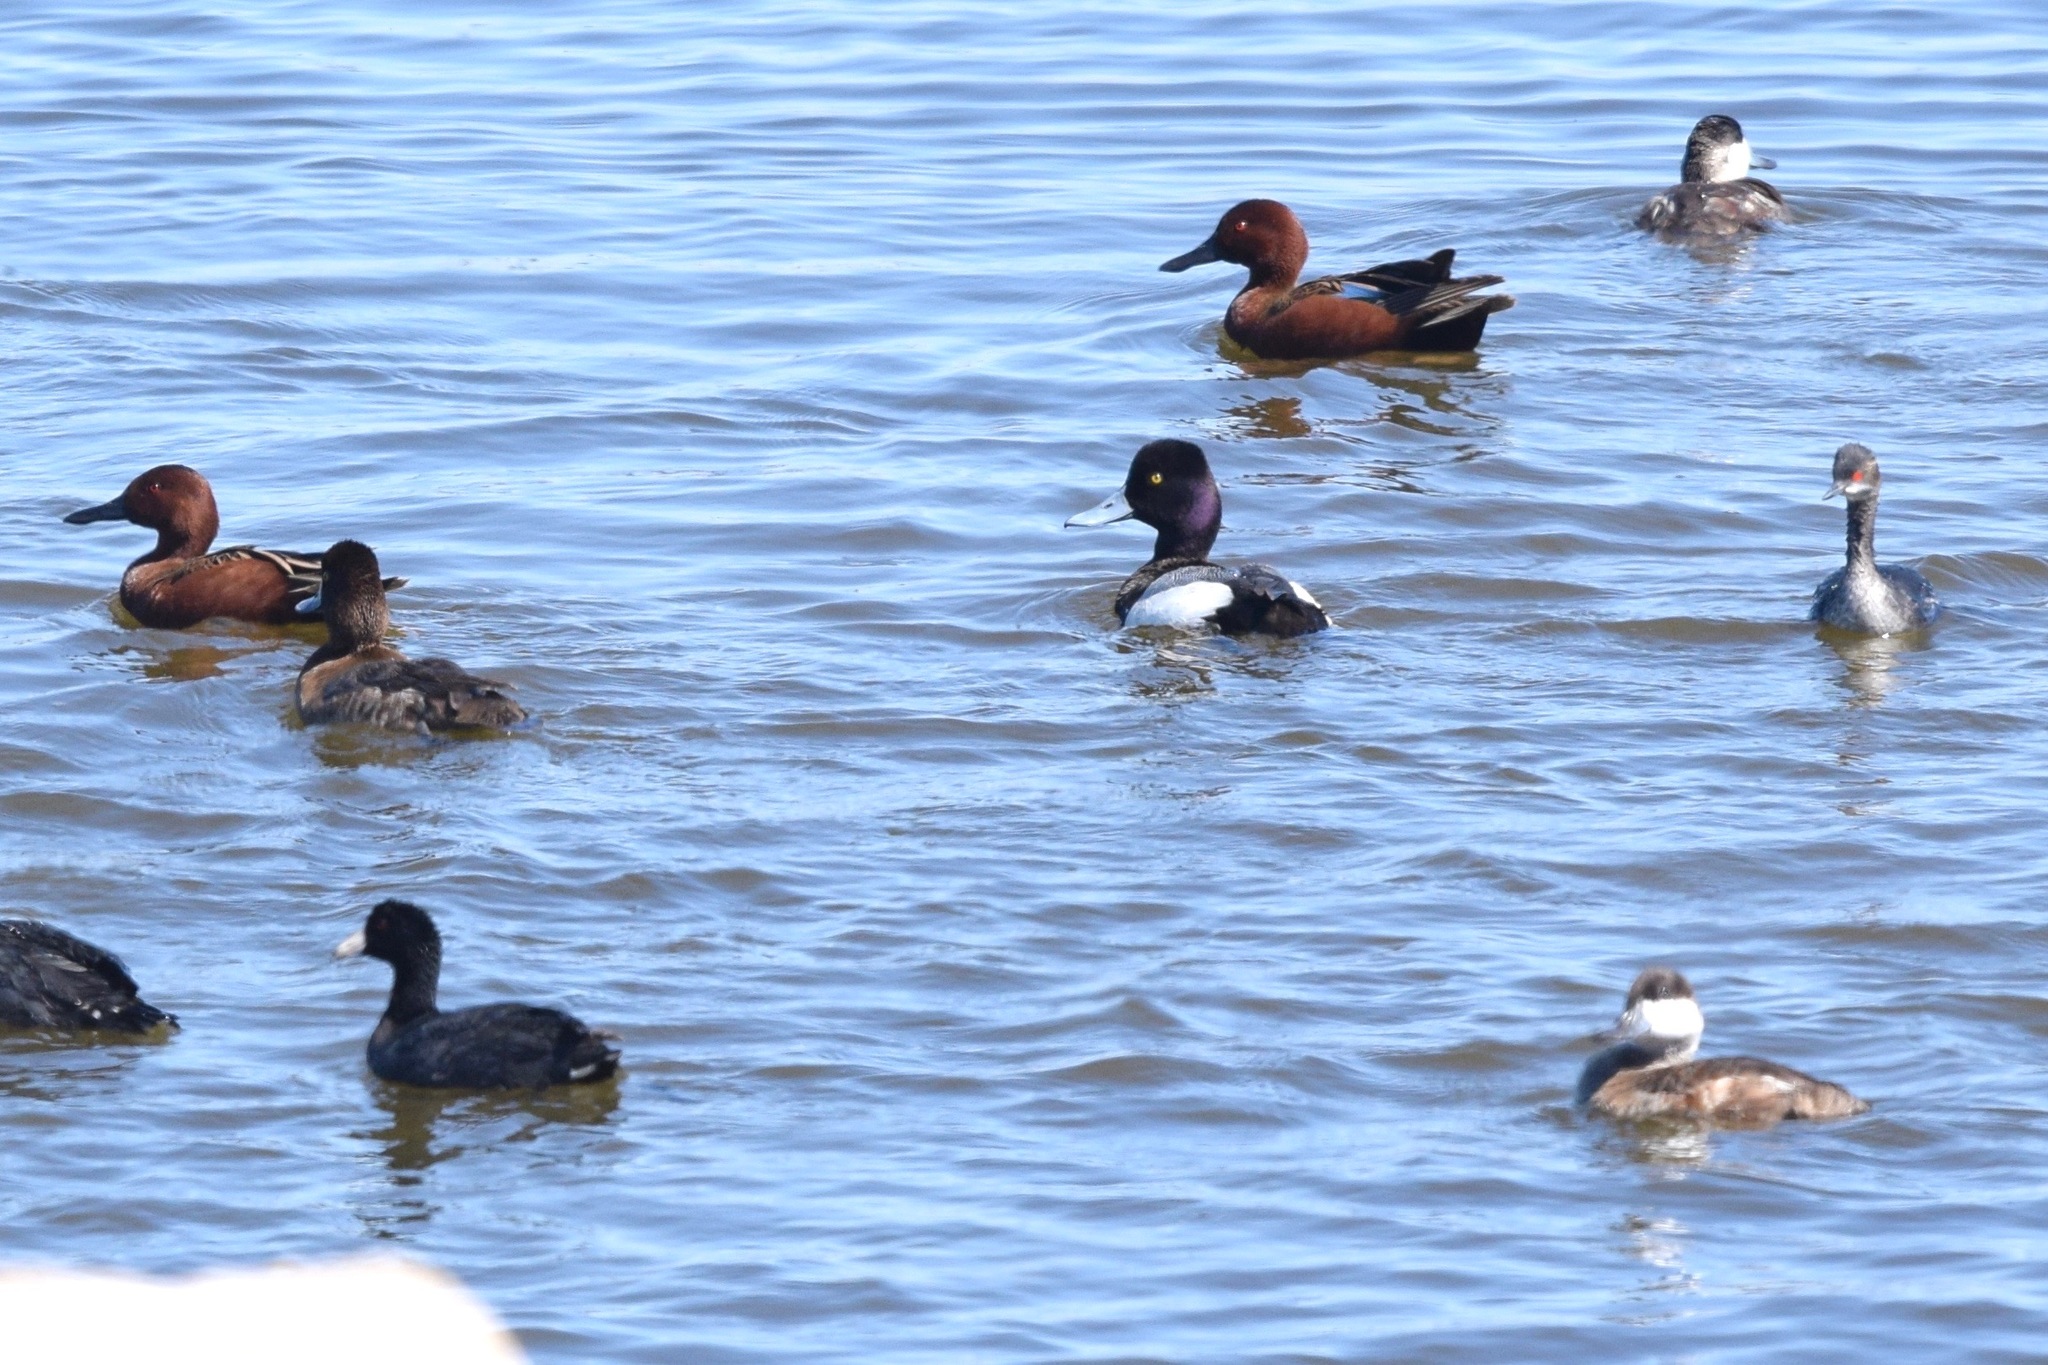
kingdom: Animalia
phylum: Chordata
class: Aves
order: Podicipediformes
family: Podicipedidae
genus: Podiceps
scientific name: Podiceps nigricollis
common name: Black-necked grebe
